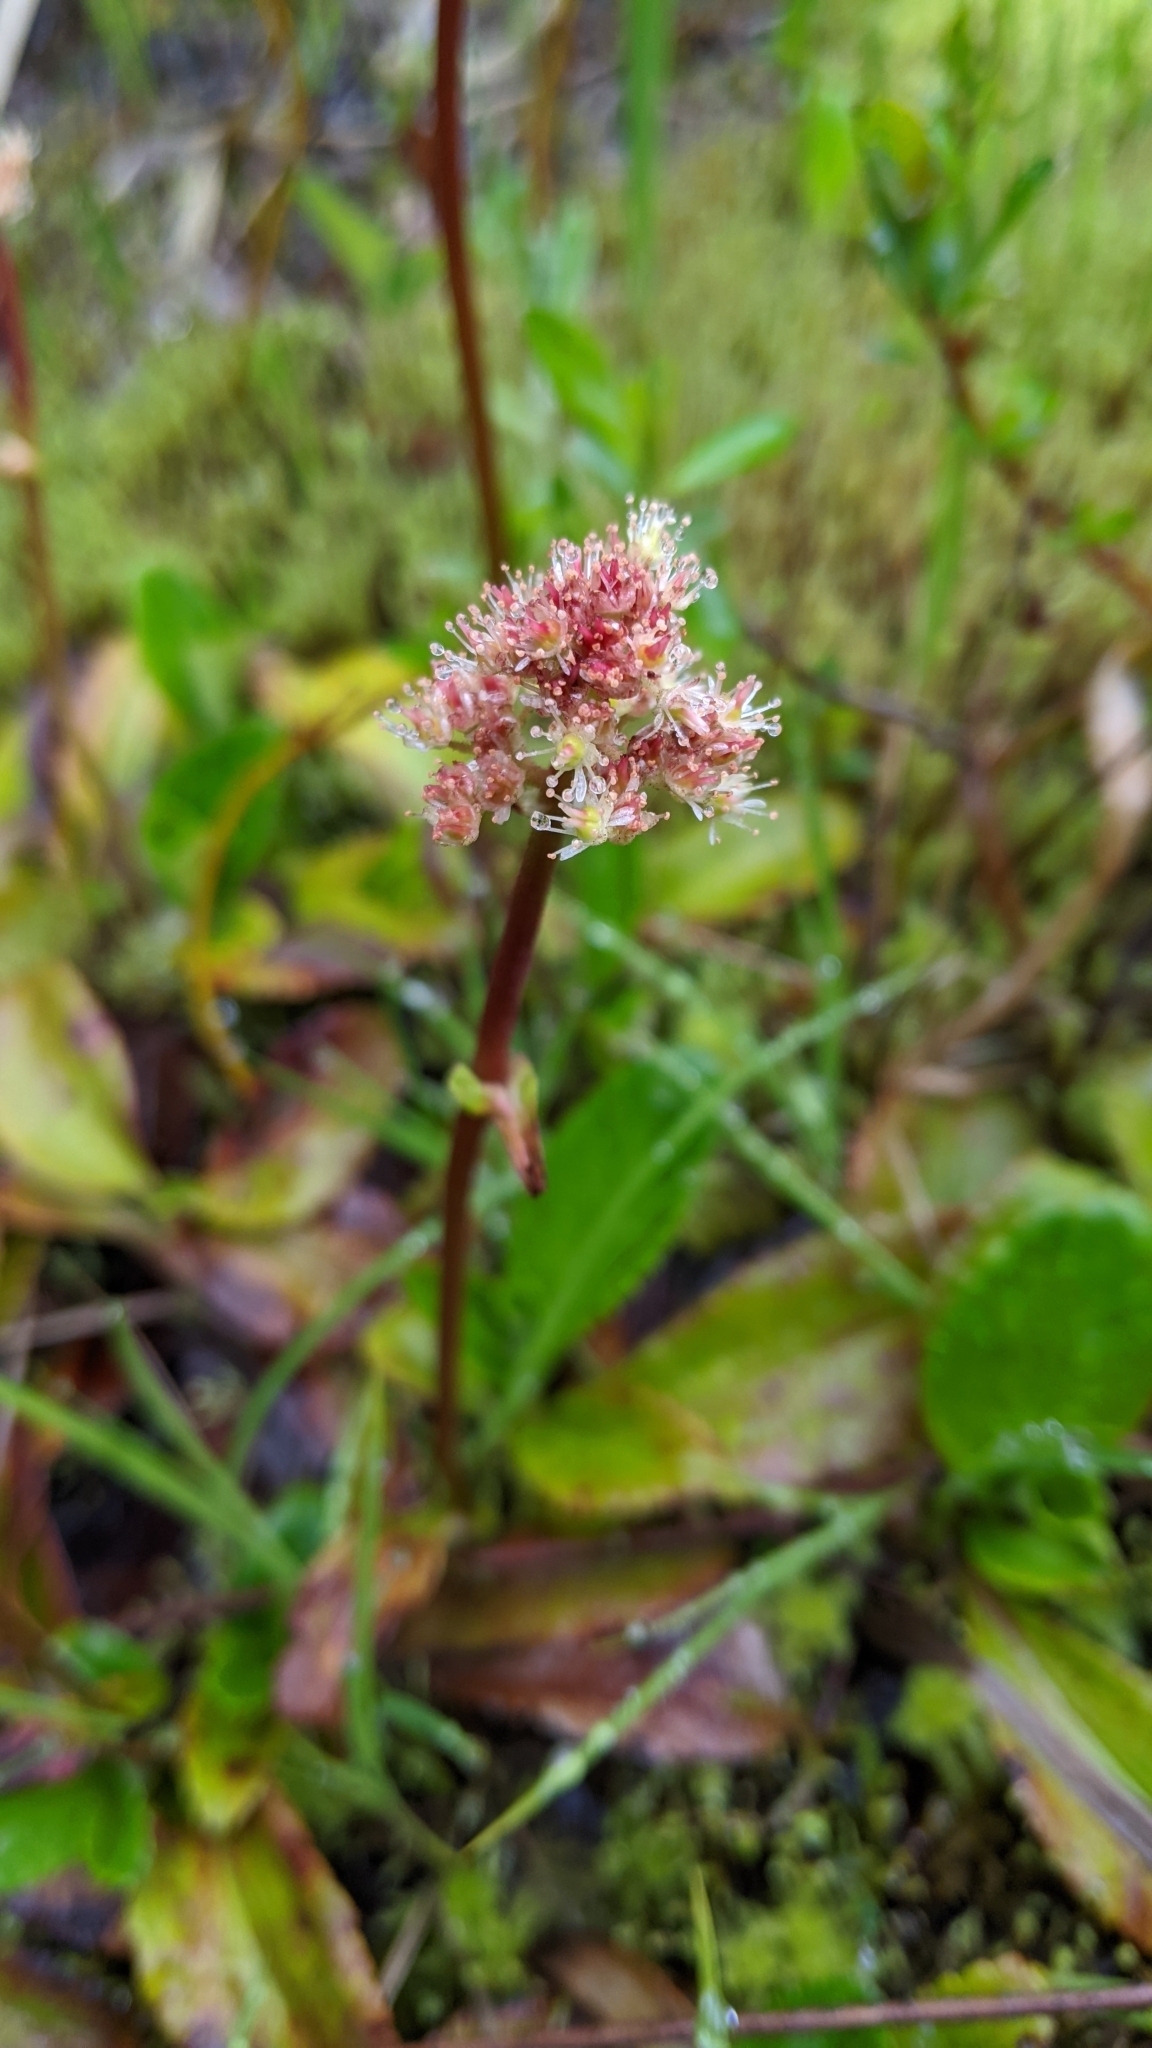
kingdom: Plantae
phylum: Tracheophyta
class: Magnoliopsida
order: Saxifragales
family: Saxifragaceae
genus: Leptarrhena
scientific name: Leptarrhena pyrolifolia
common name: Leatherleaf-saxifrage
